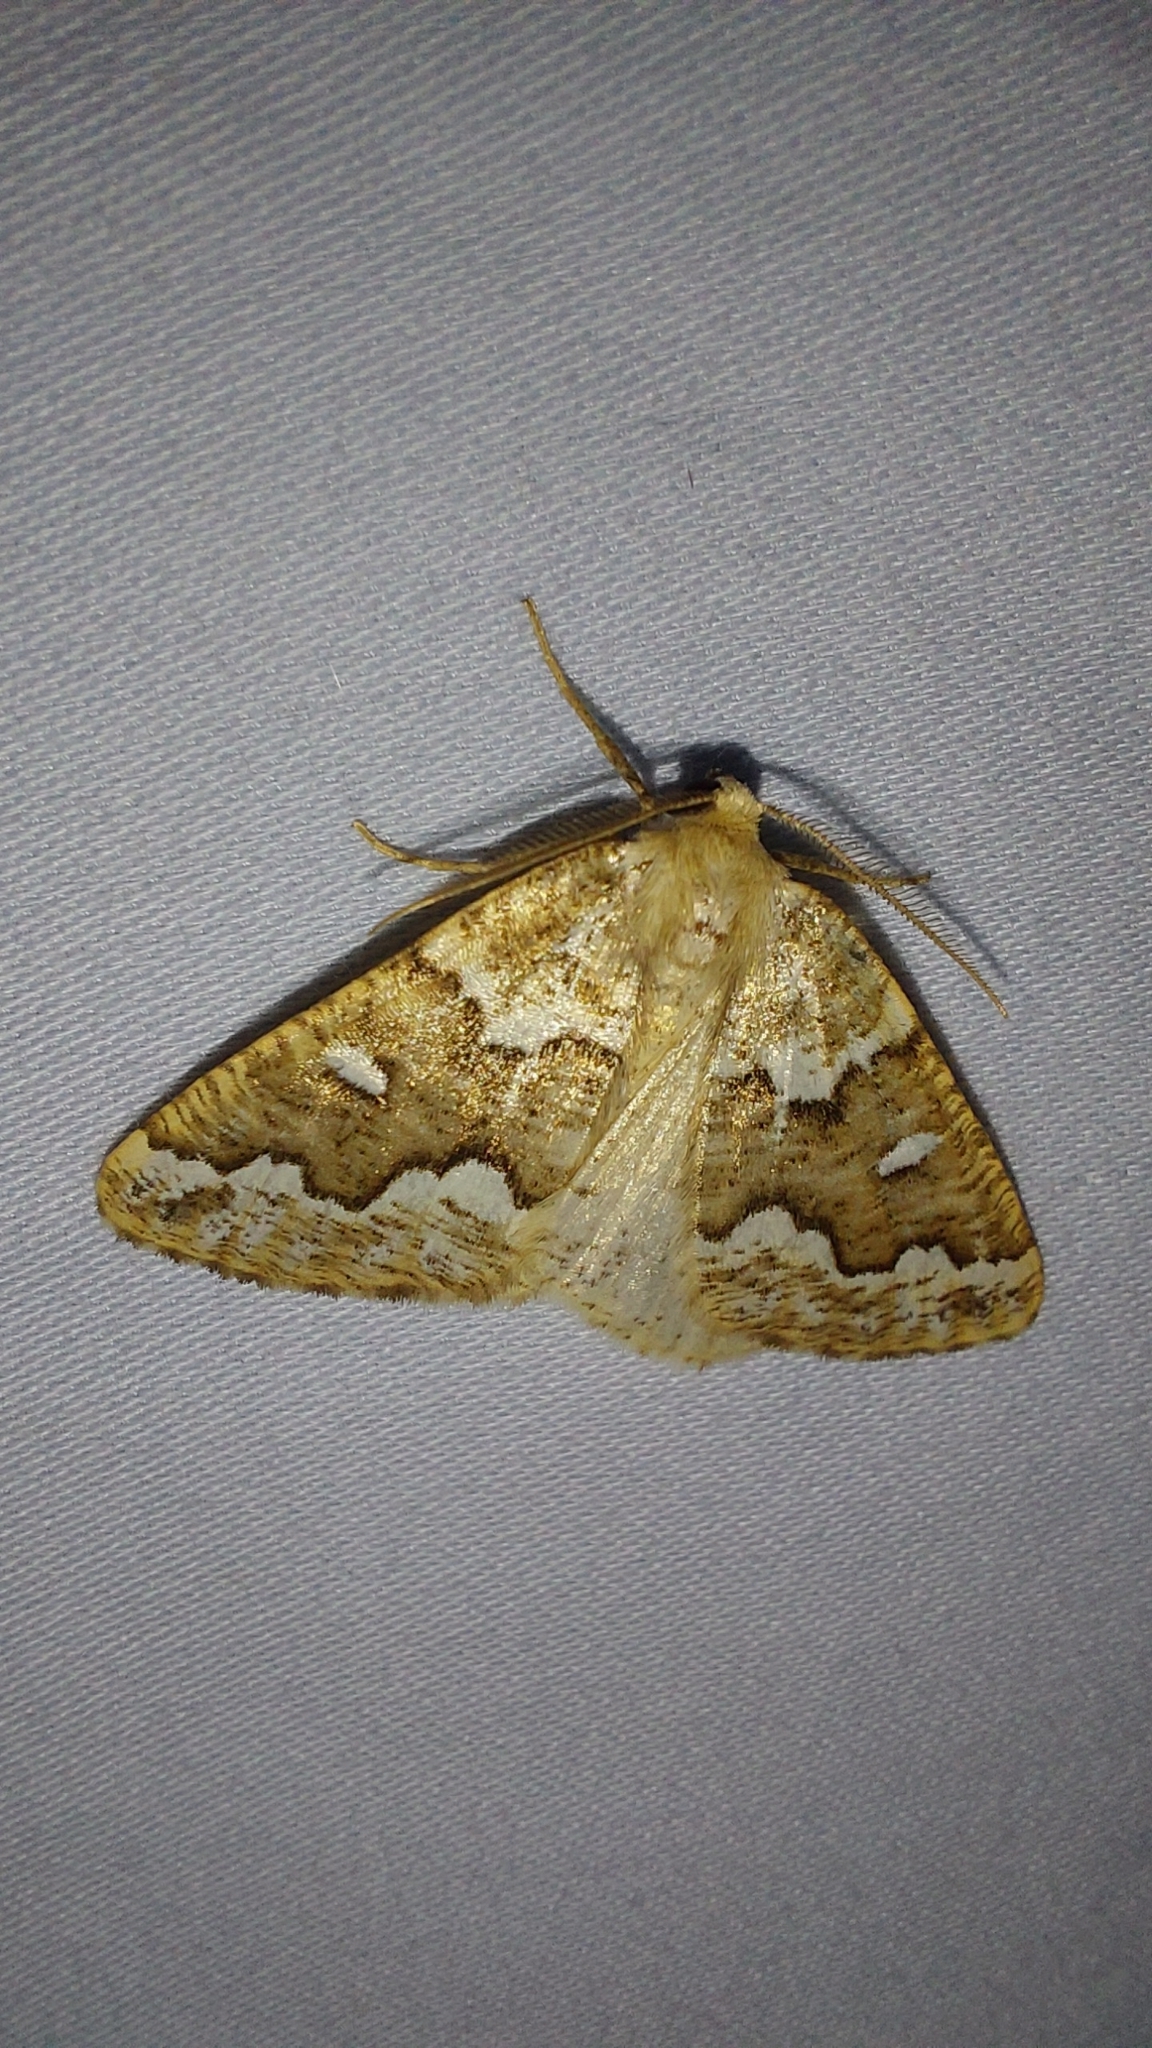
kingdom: Animalia
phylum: Arthropoda
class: Insecta
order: Lepidoptera
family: Geometridae
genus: Caripeta
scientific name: Caripeta divisata
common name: Gray spruce looper
